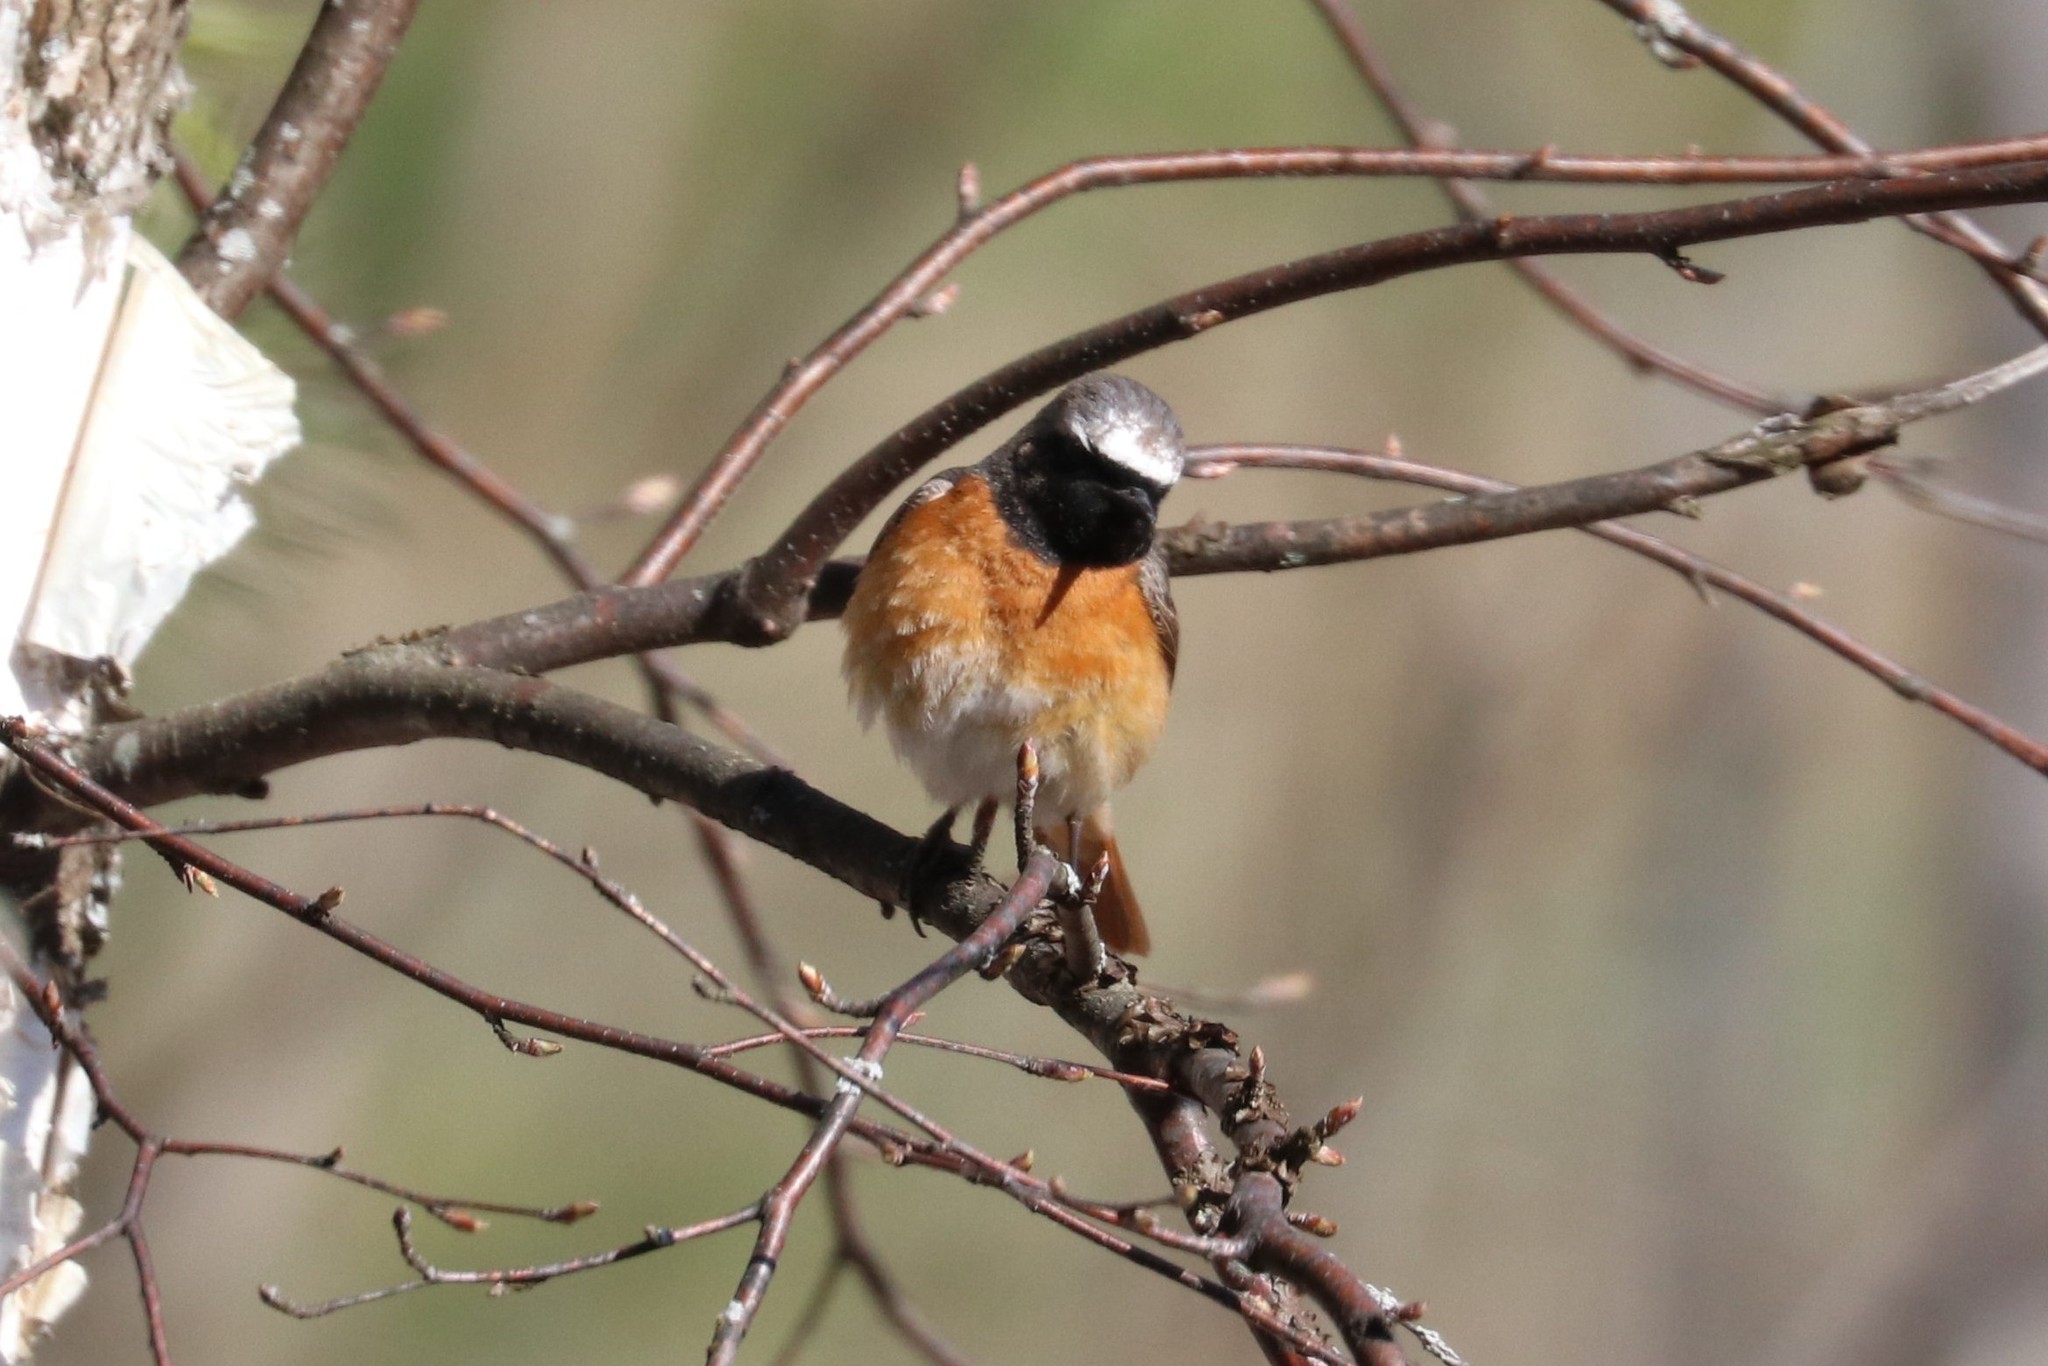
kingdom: Animalia
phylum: Chordata
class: Aves
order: Passeriformes
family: Muscicapidae
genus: Phoenicurus
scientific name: Phoenicurus phoenicurus
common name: Common redstart
